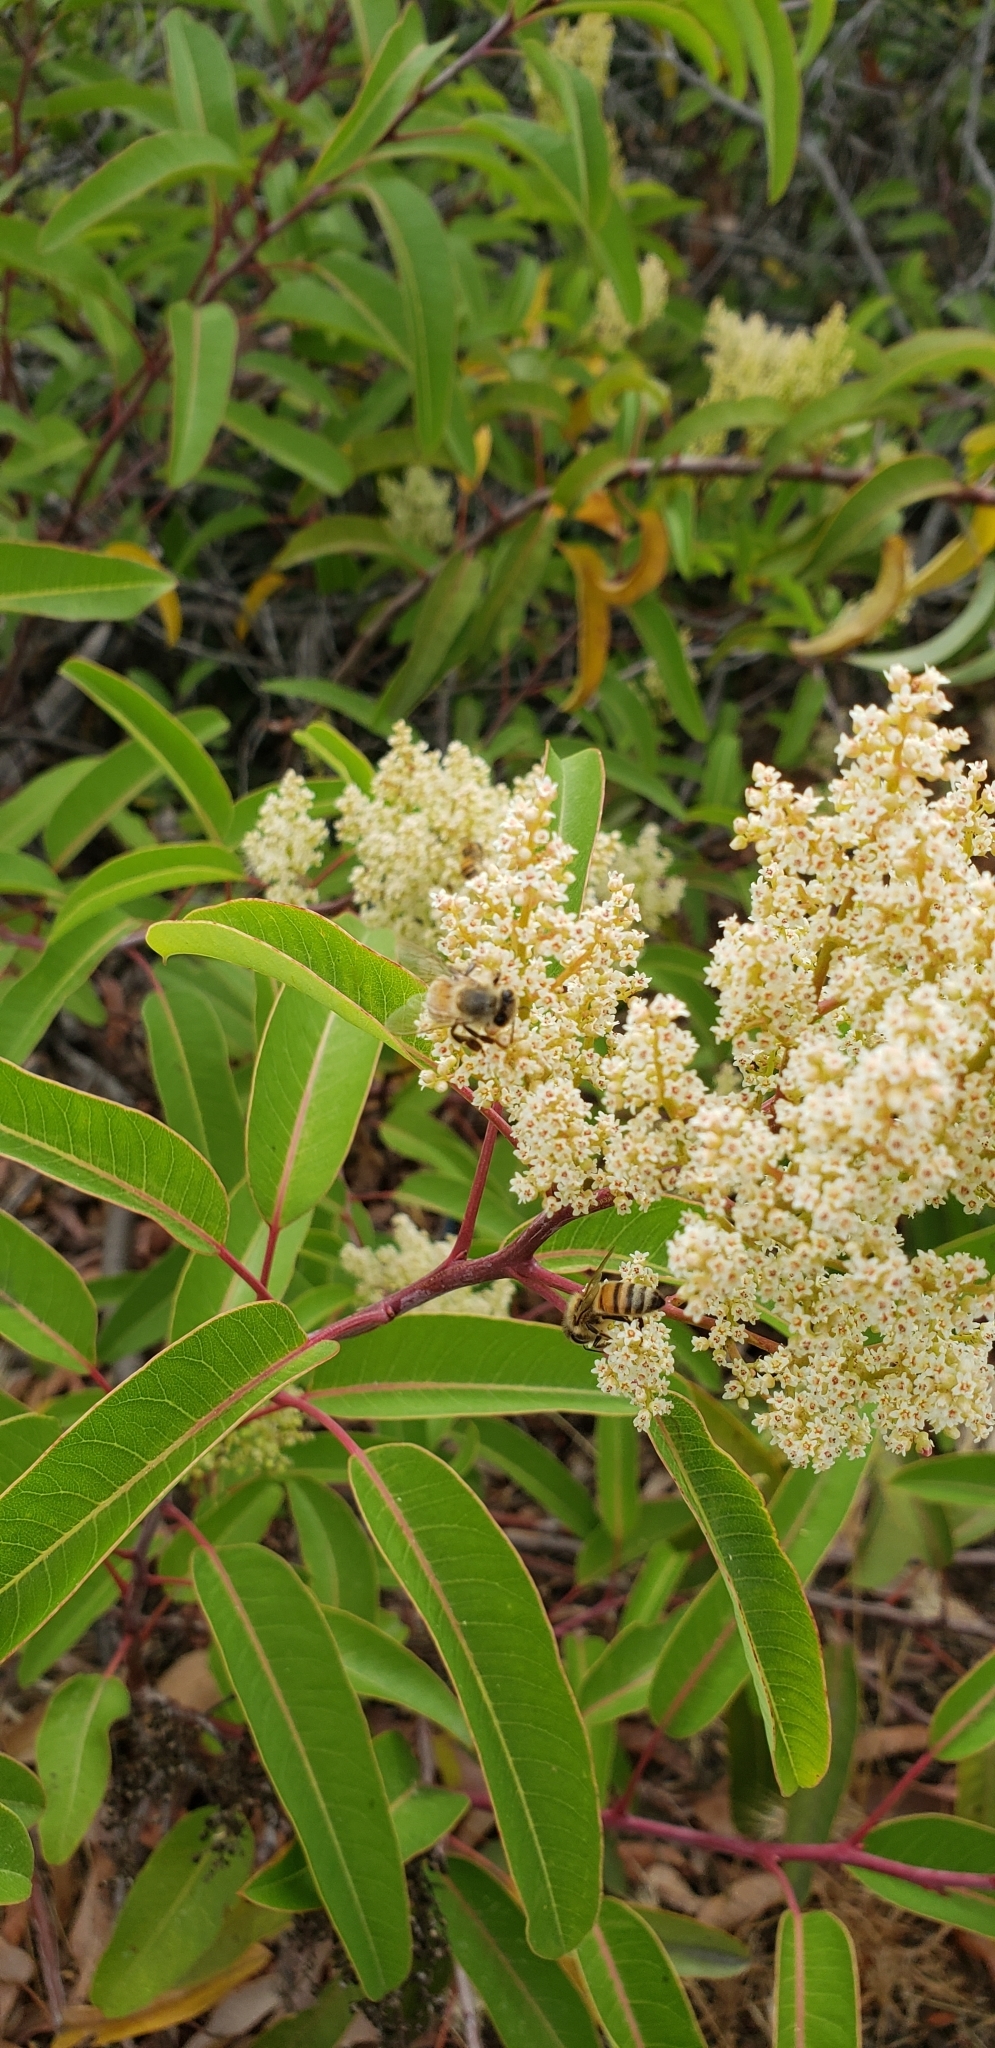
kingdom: Plantae
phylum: Tracheophyta
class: Magnoliopsida
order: Sapindales
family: Anacardiaceae
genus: Malosma
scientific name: Malosma laurina
